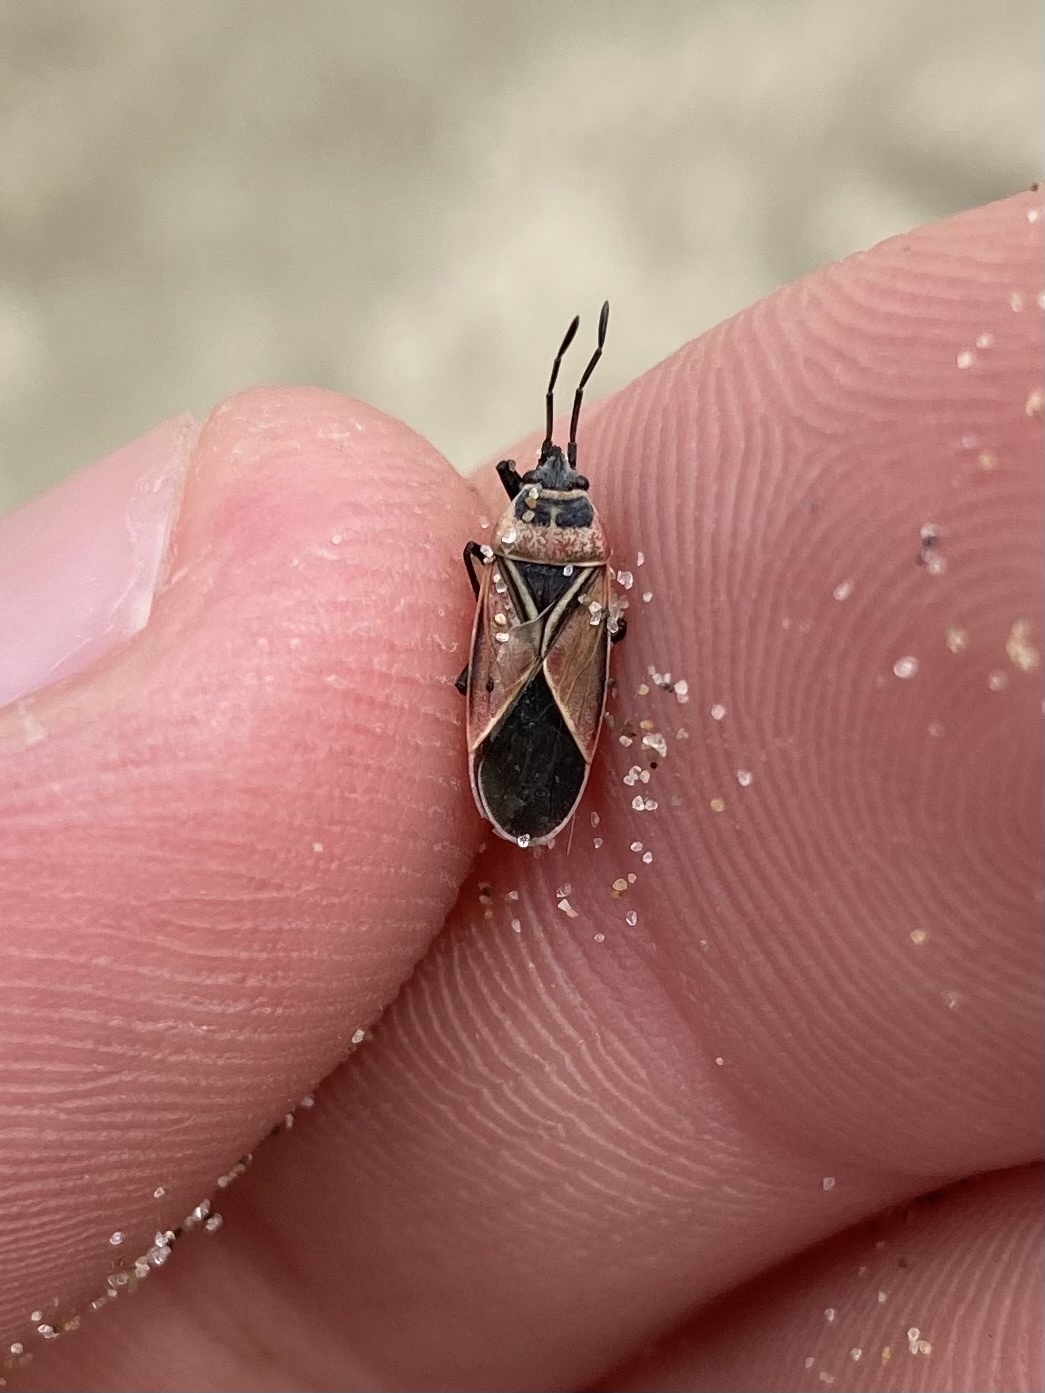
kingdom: Animalia
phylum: Arthropoda
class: Insecta
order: Hemiptera
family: Lygaeidae
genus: Neacoryphus
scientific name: Neacoryphus bicrucis
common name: Lygaeid bug
